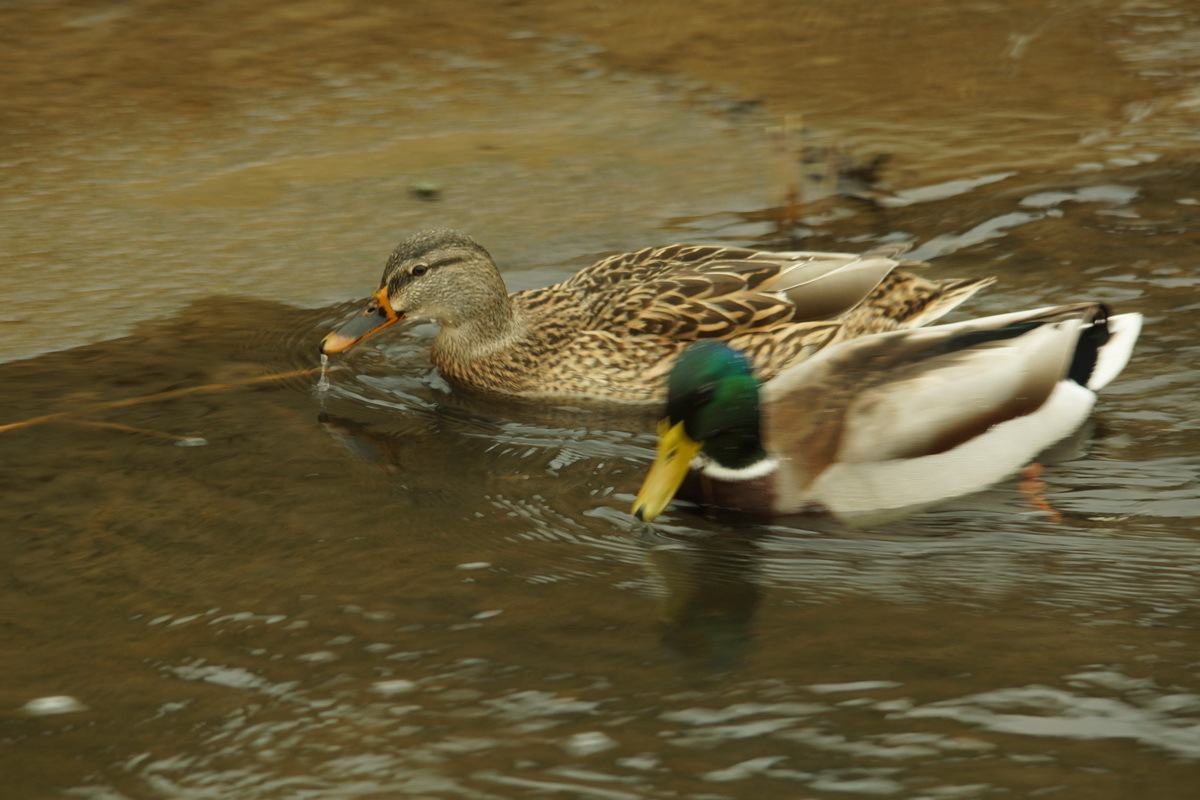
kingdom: Animalia
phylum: Chordata
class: Aves
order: Anseriformes
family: Anatidae
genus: Anas
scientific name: Anas platyrhynchos
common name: Mallard
